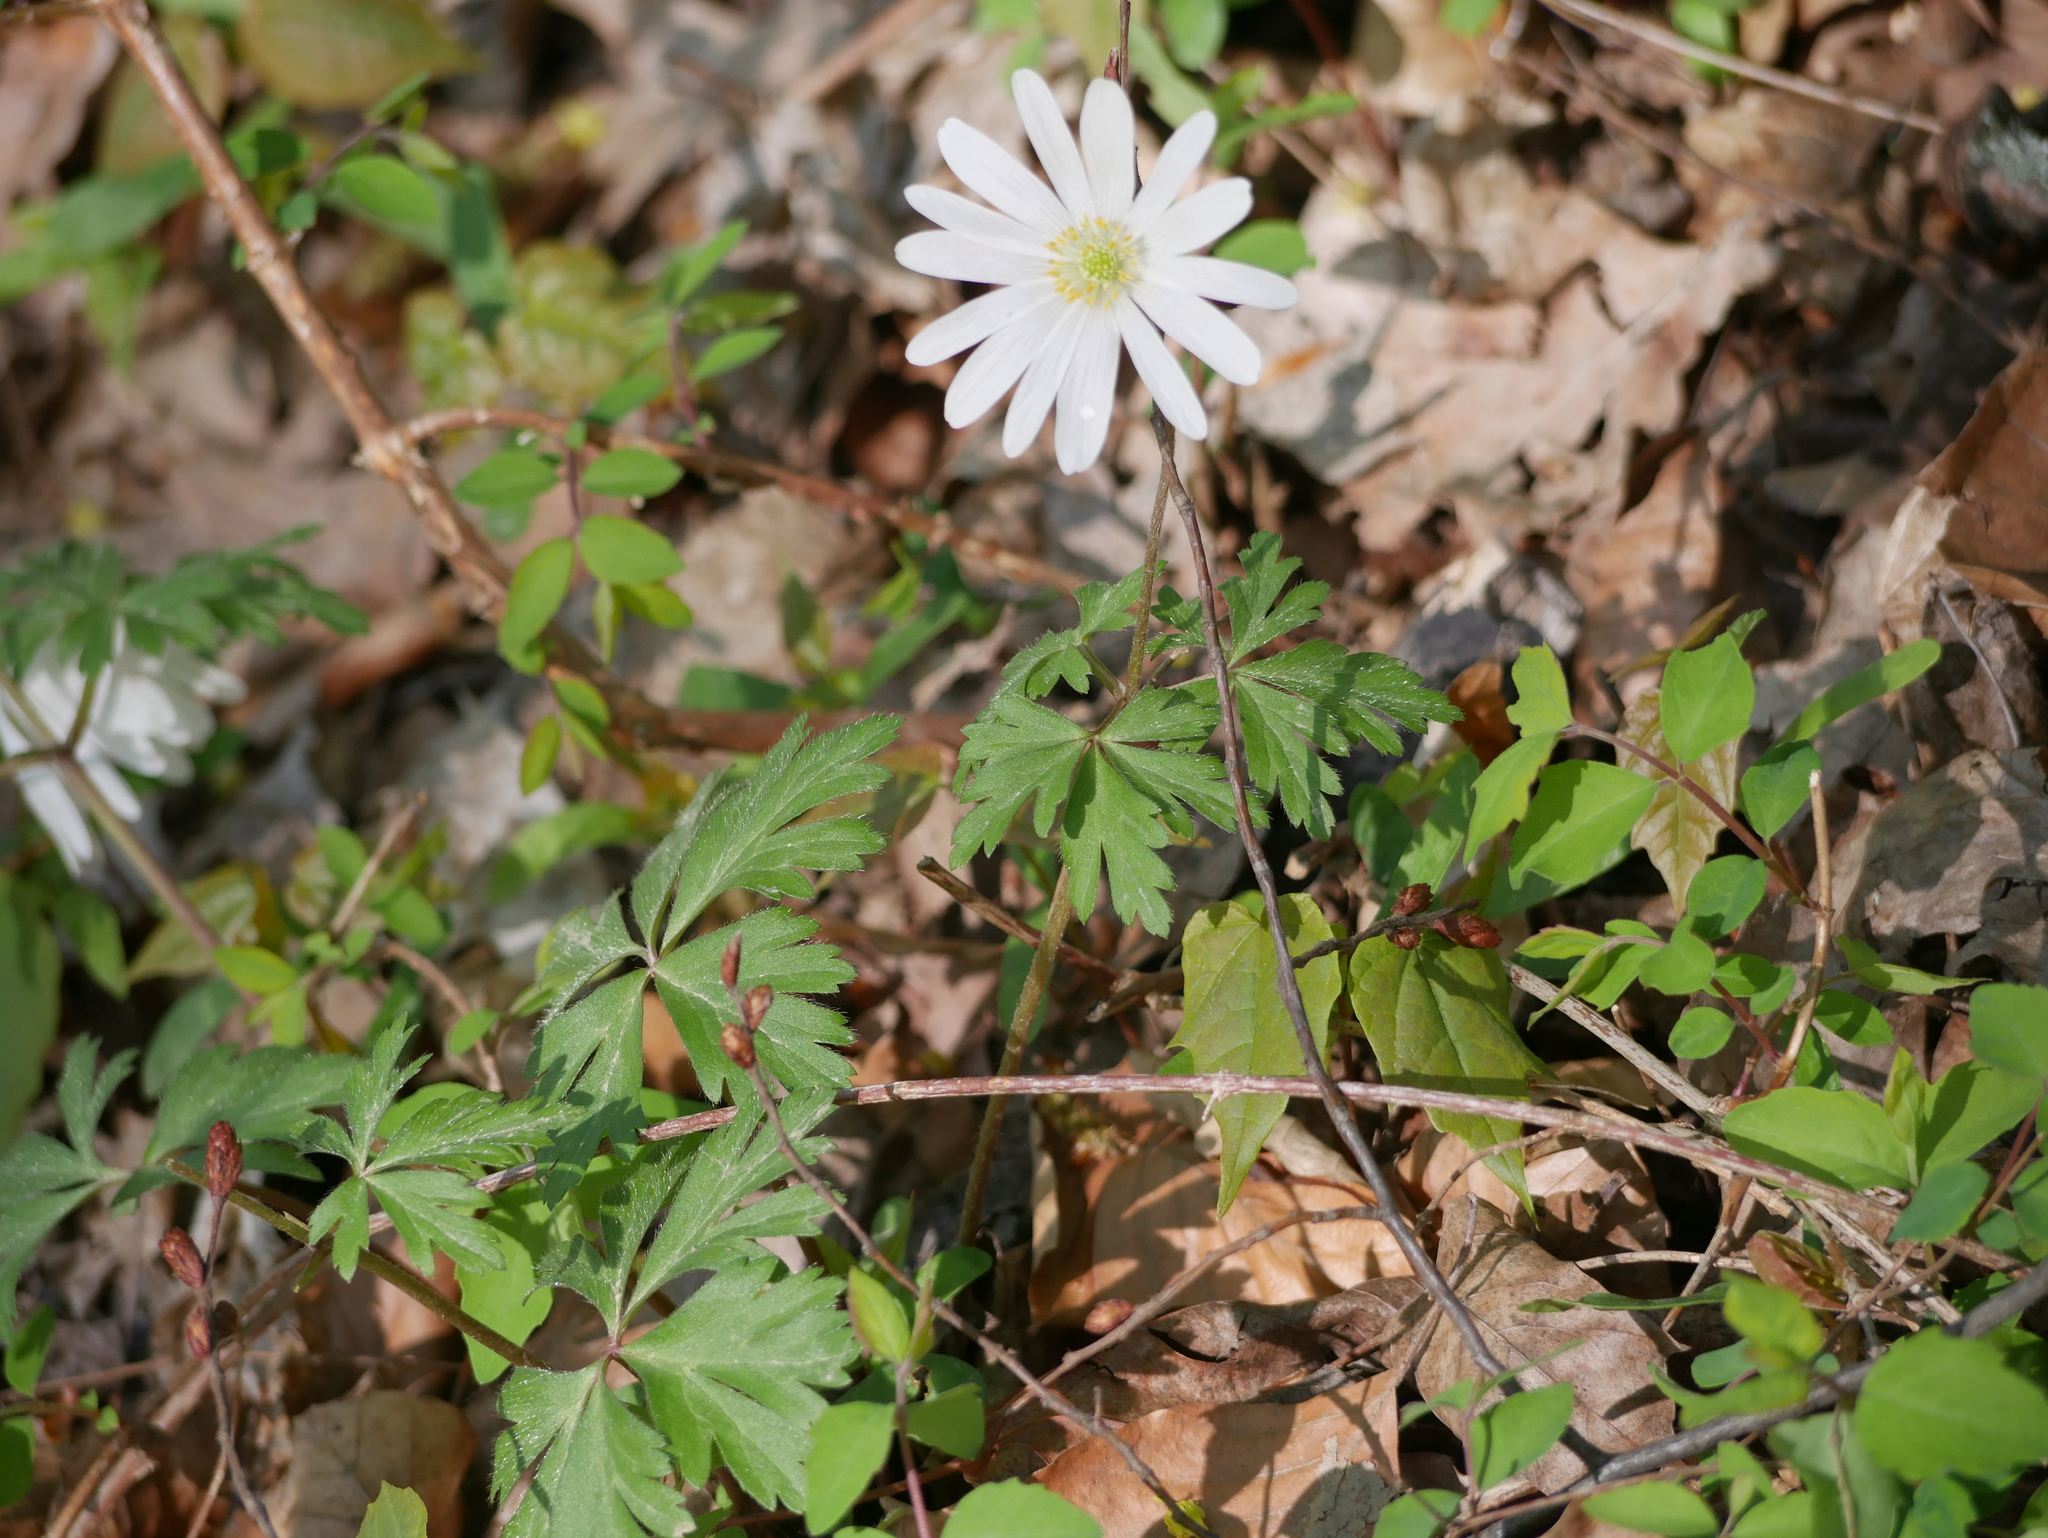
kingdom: Plantae
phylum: Tracheophyta
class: Magnoliopsida
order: Ranunculales
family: Ranunculaceae
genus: Anemone
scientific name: Anemone blanda
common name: Balkan anemone
